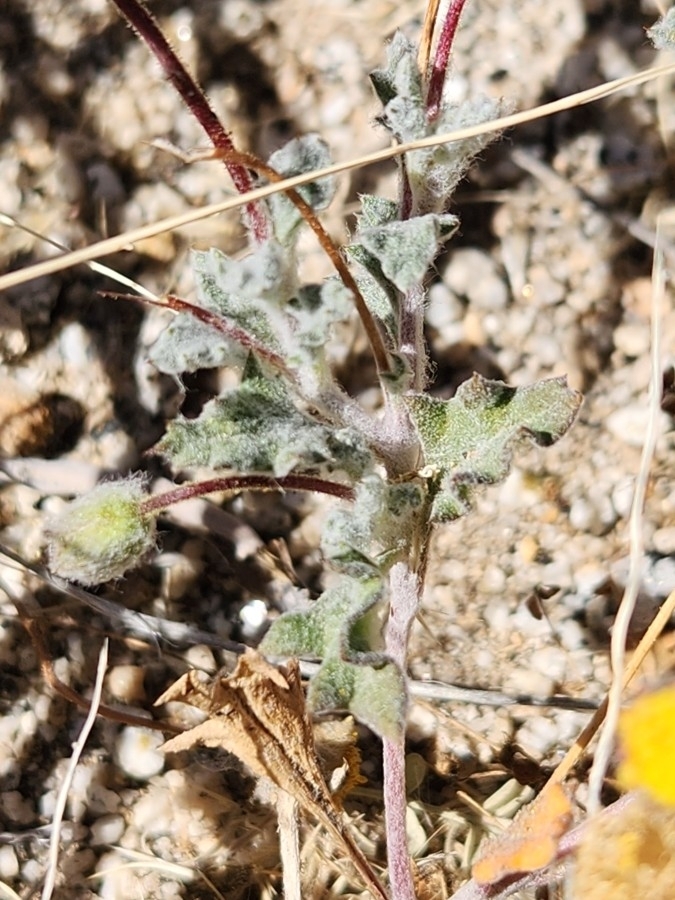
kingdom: Plantae
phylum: Tracheophyta
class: Magnoliopsida
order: Asterales
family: Asteraceae
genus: Trichoptilium
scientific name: Trichoptilium incisum
